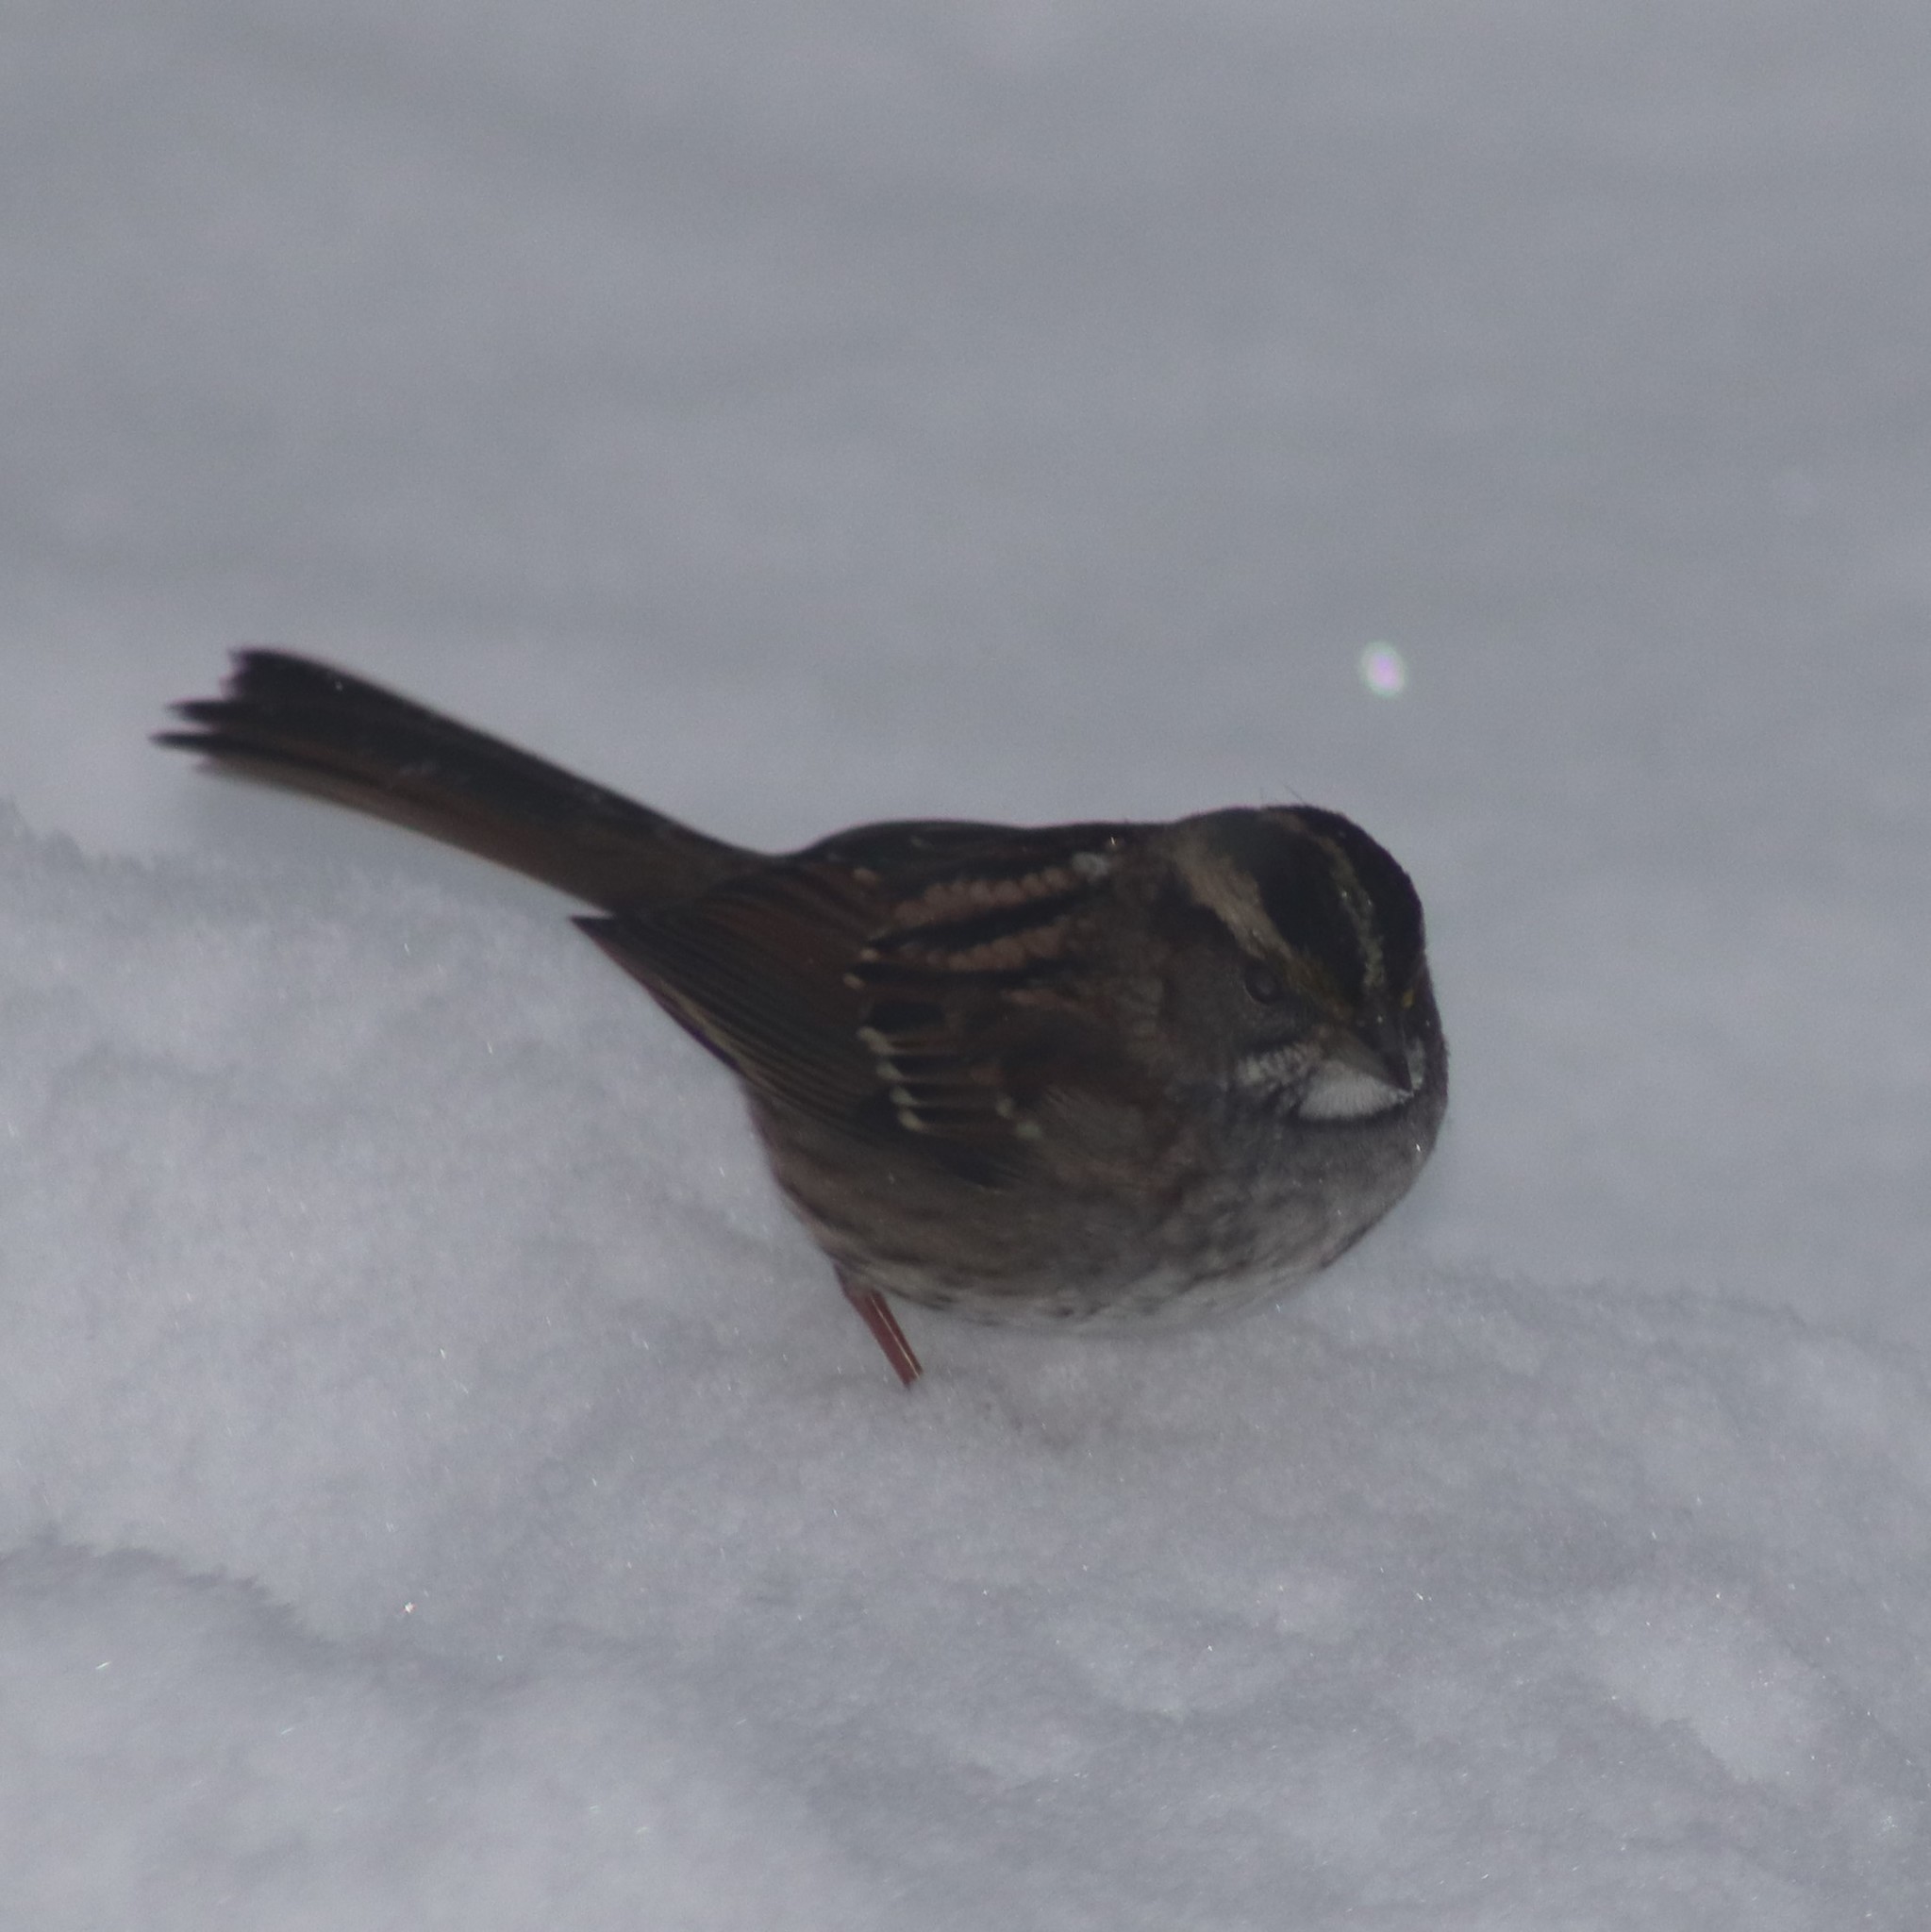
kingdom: Animalia
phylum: Chordata
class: Aves
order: Passeriformes
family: Passerellidae
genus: Zonotrichia
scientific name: Zonotrichia albicollis
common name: White-throated sparrow
